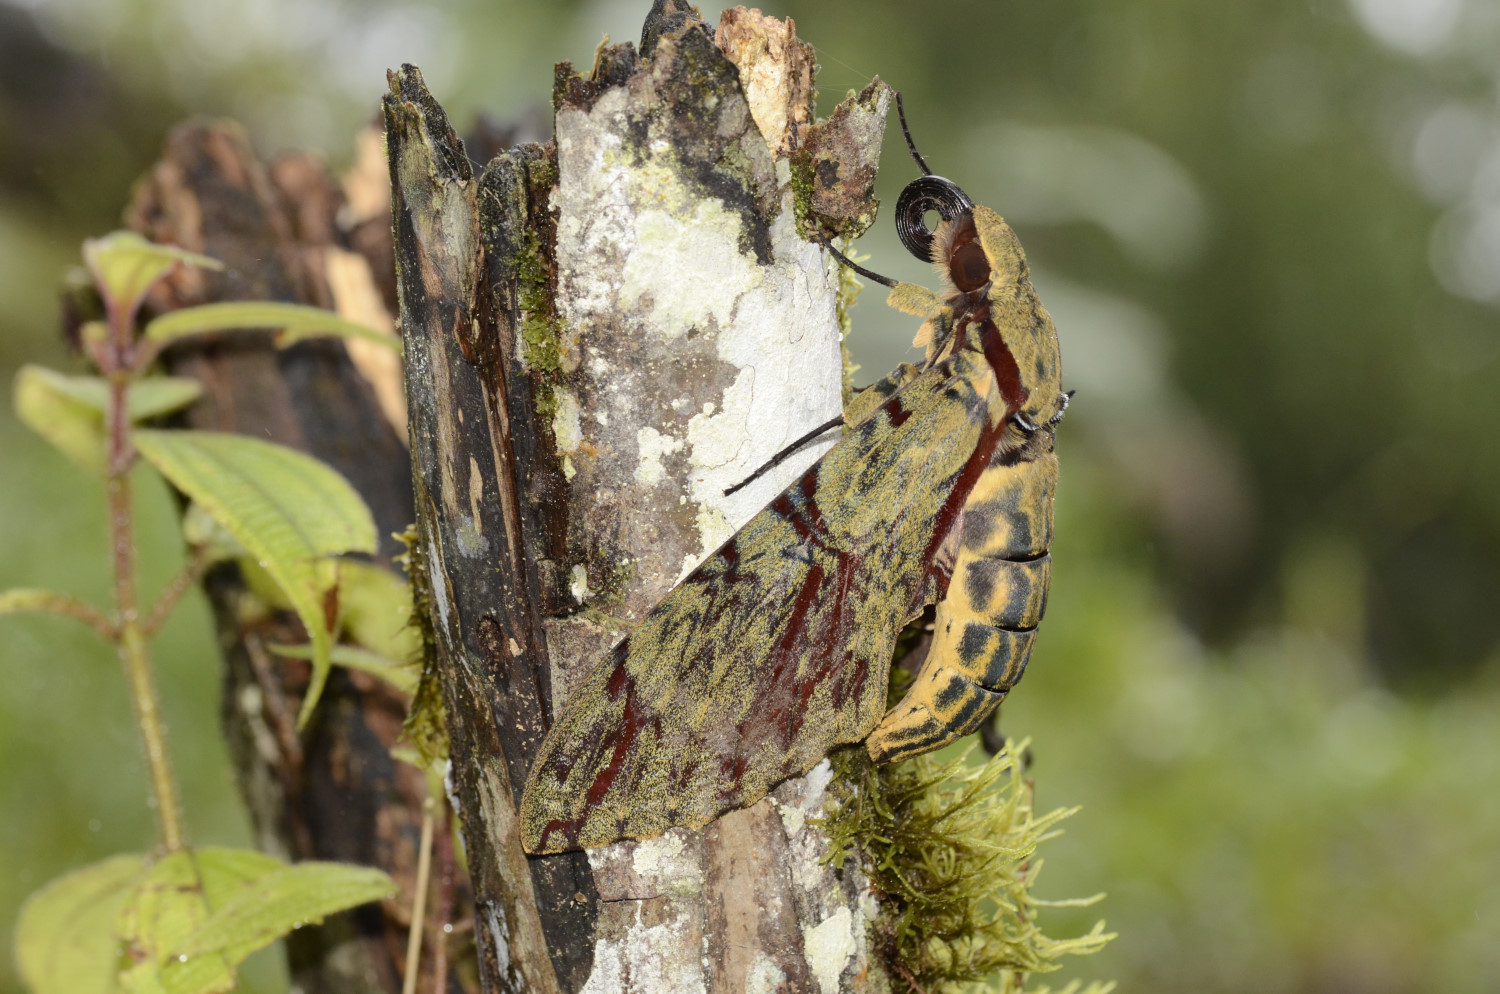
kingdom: Animalia
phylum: Arthropoda
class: Insecta
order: Lepidoptera
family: Sphingidae
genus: Amphimoea
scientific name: Amphimoea walkeri
